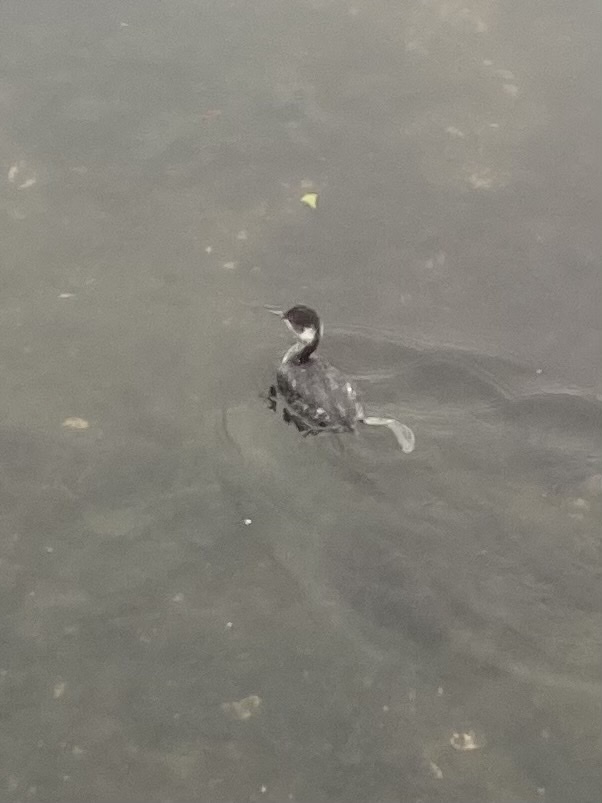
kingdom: Animalia
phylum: Chordata
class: Aves
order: Podicipediformes
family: Podicipedidae
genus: Podiceps
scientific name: Podiceps nigricollis
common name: Black-necked grebe
